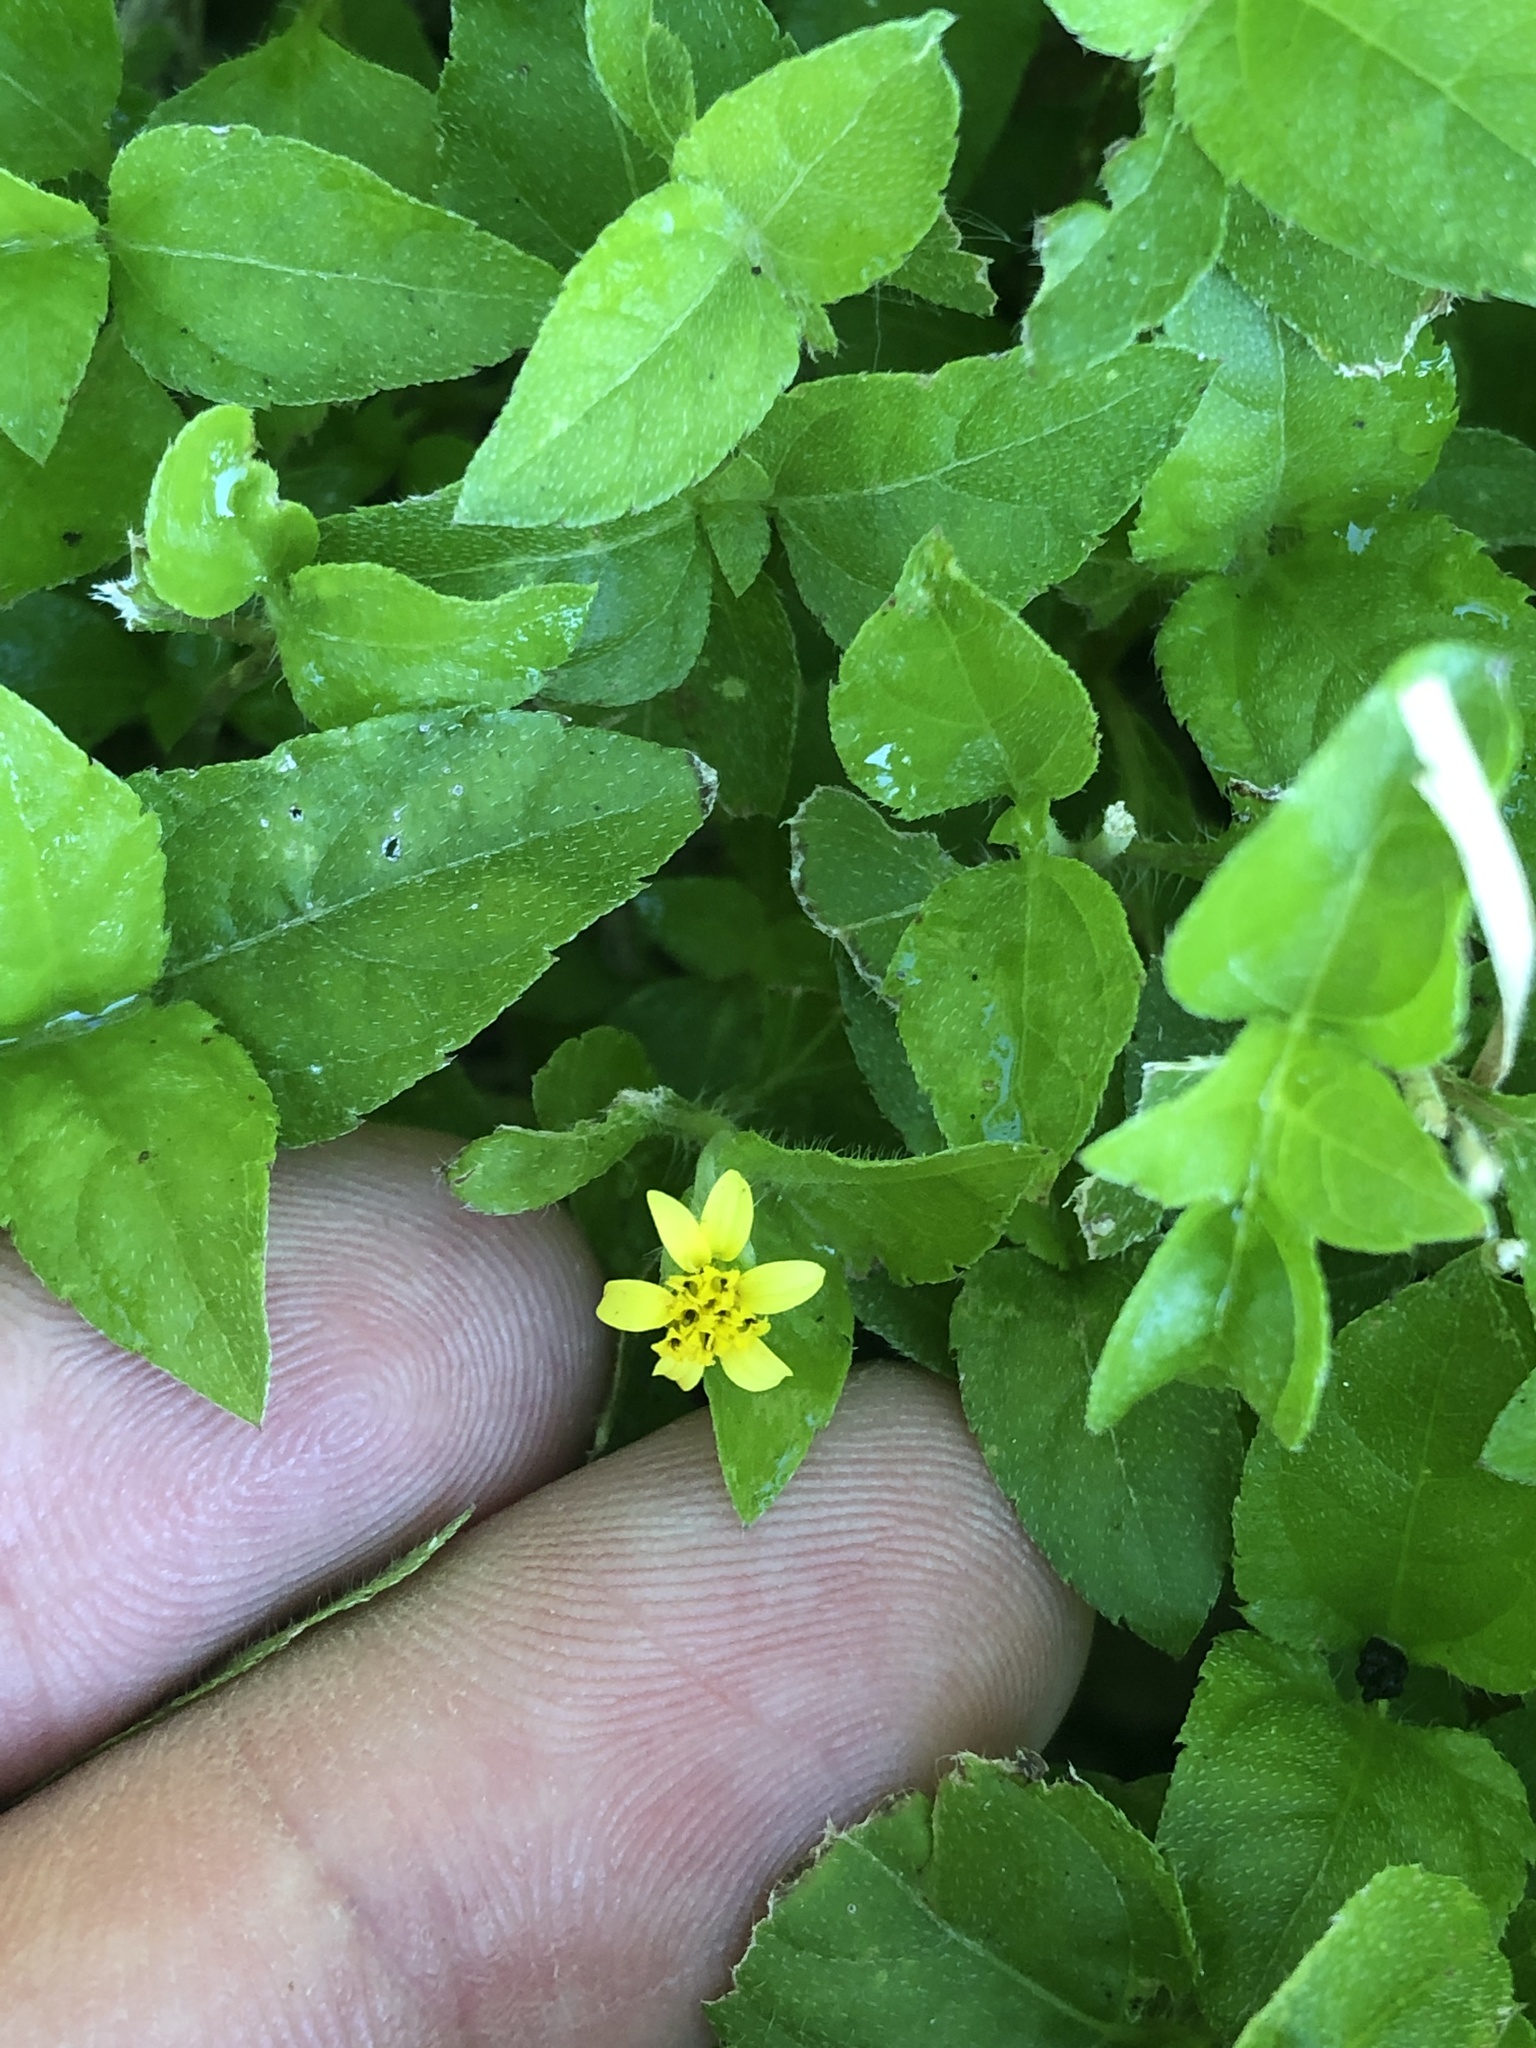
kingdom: Plantae
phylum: Tracheophyta
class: Magnoliopsida
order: Asterales
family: Asteraceae
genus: Calyptocarpus
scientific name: Calyptocarpus vialis
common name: Straggler daisy
